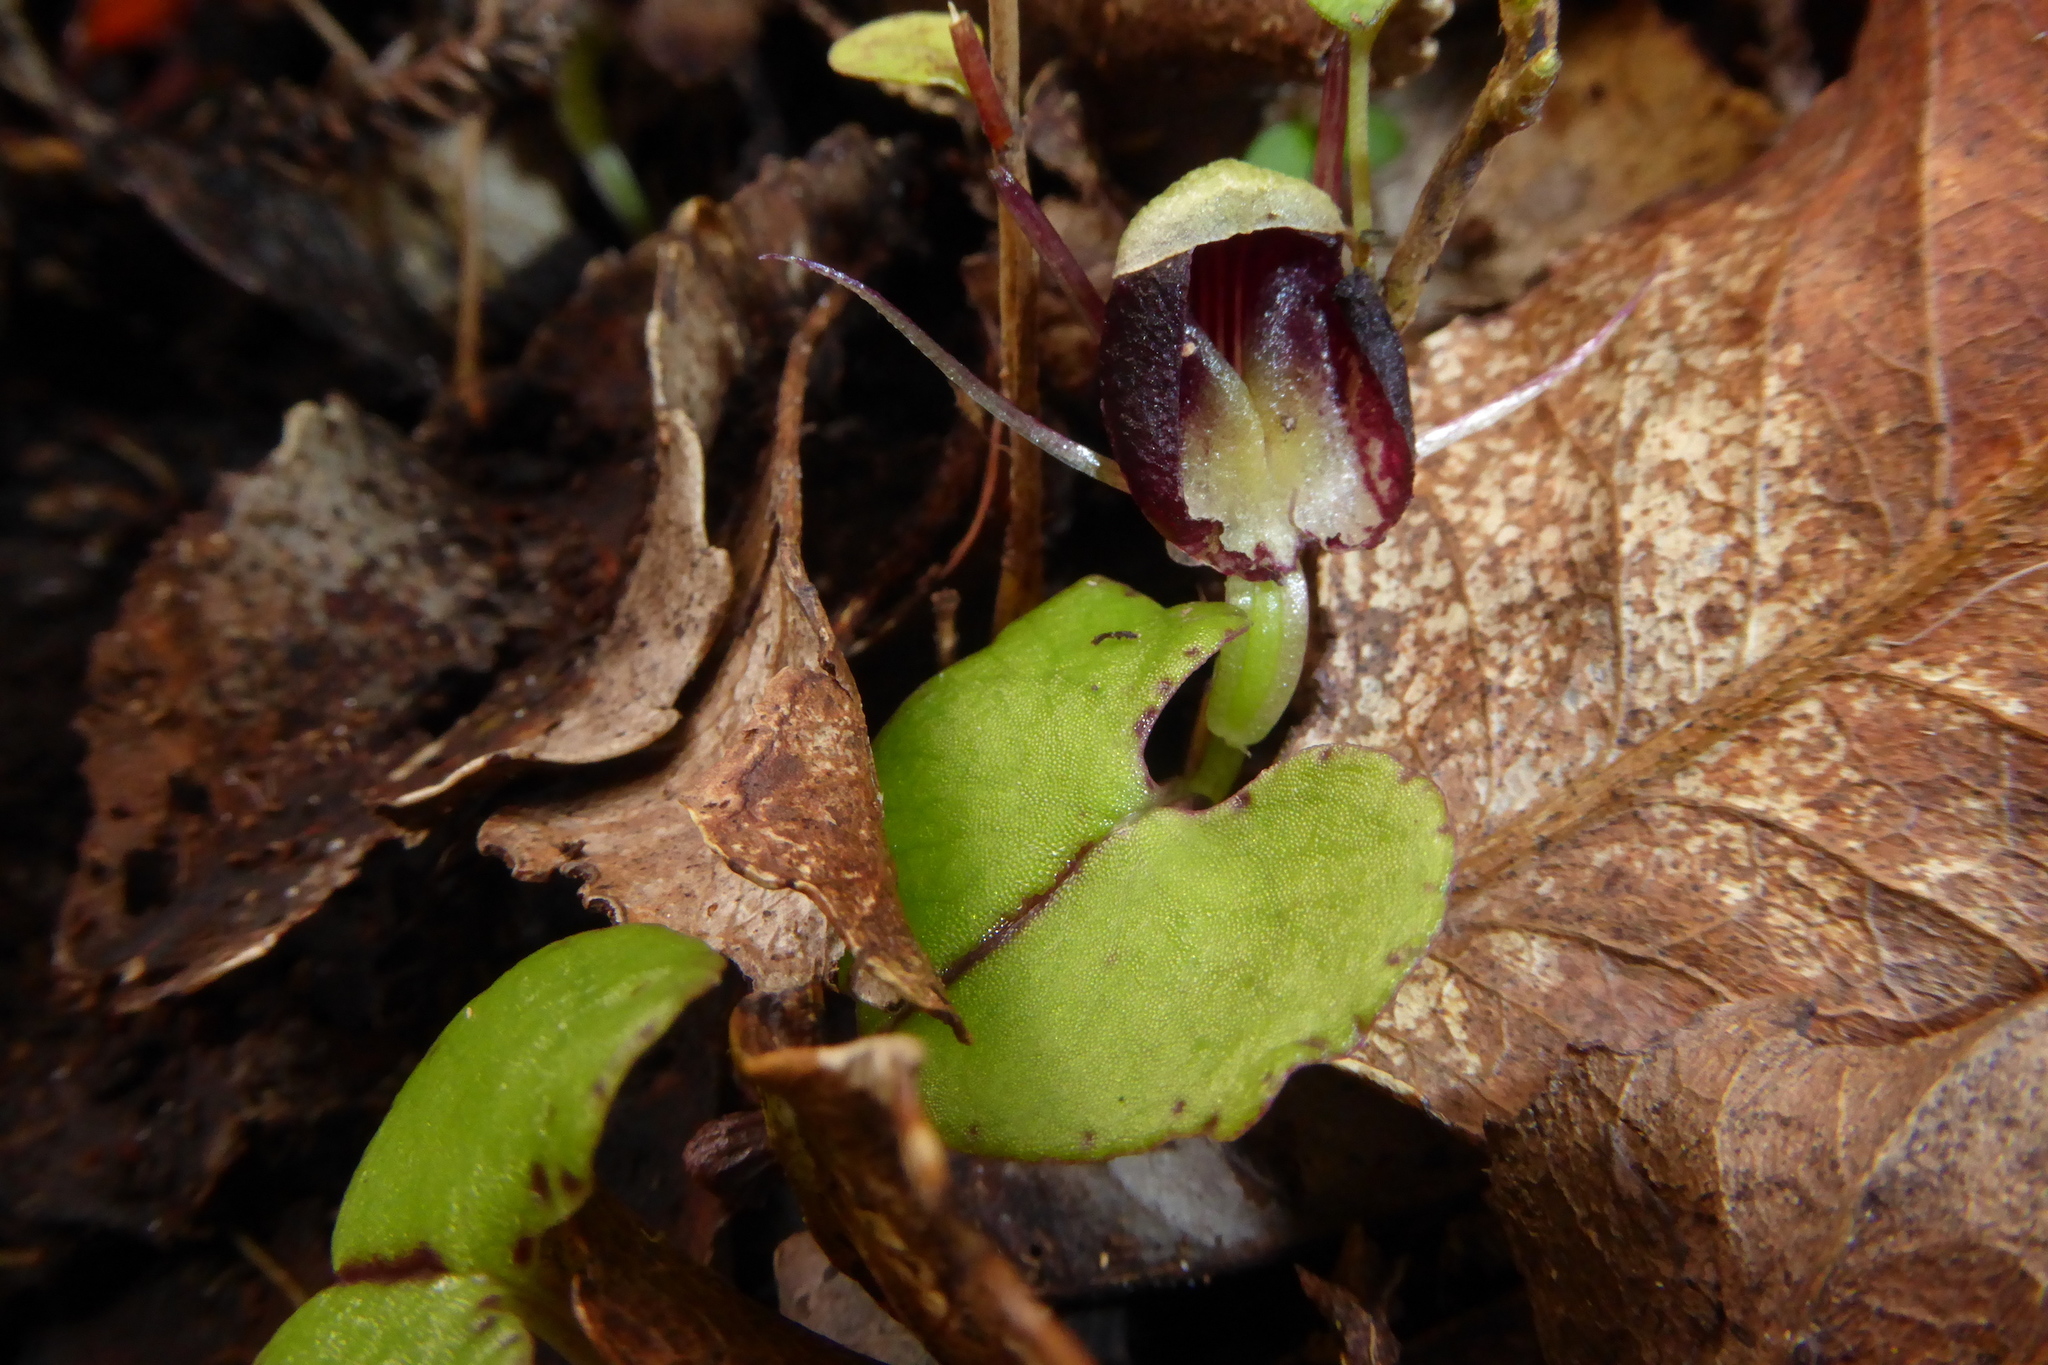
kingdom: Plantae
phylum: Tracheophyta
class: Liliopsida
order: Asparagales
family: Orchidaceae
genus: Corybas
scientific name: Corybas trilobus
